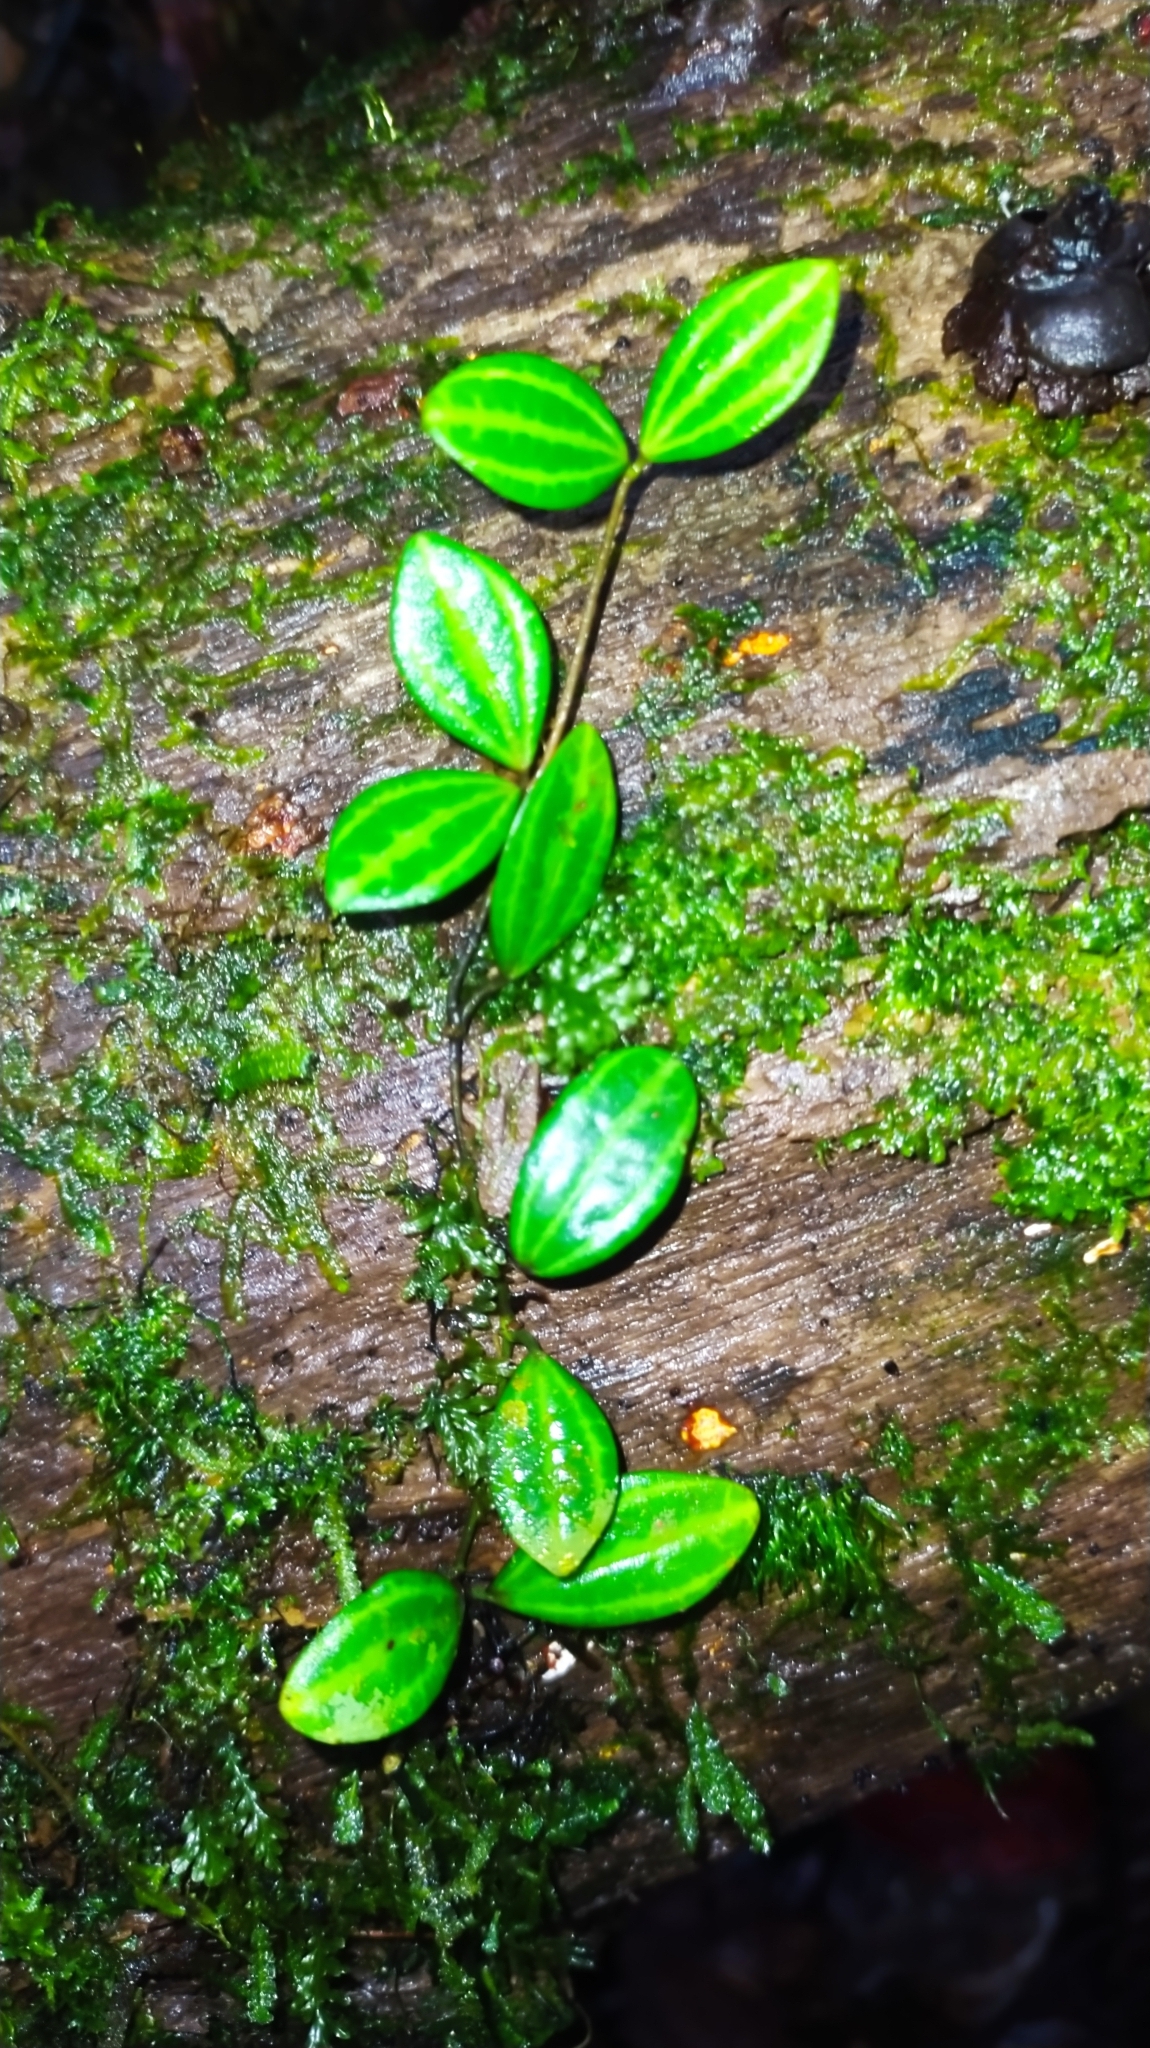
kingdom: Plantae
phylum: Tracheophyta
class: Magnoliopsida
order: Piperales
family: Piperaceae
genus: Peperomia
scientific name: Peperomia quadrangularis
